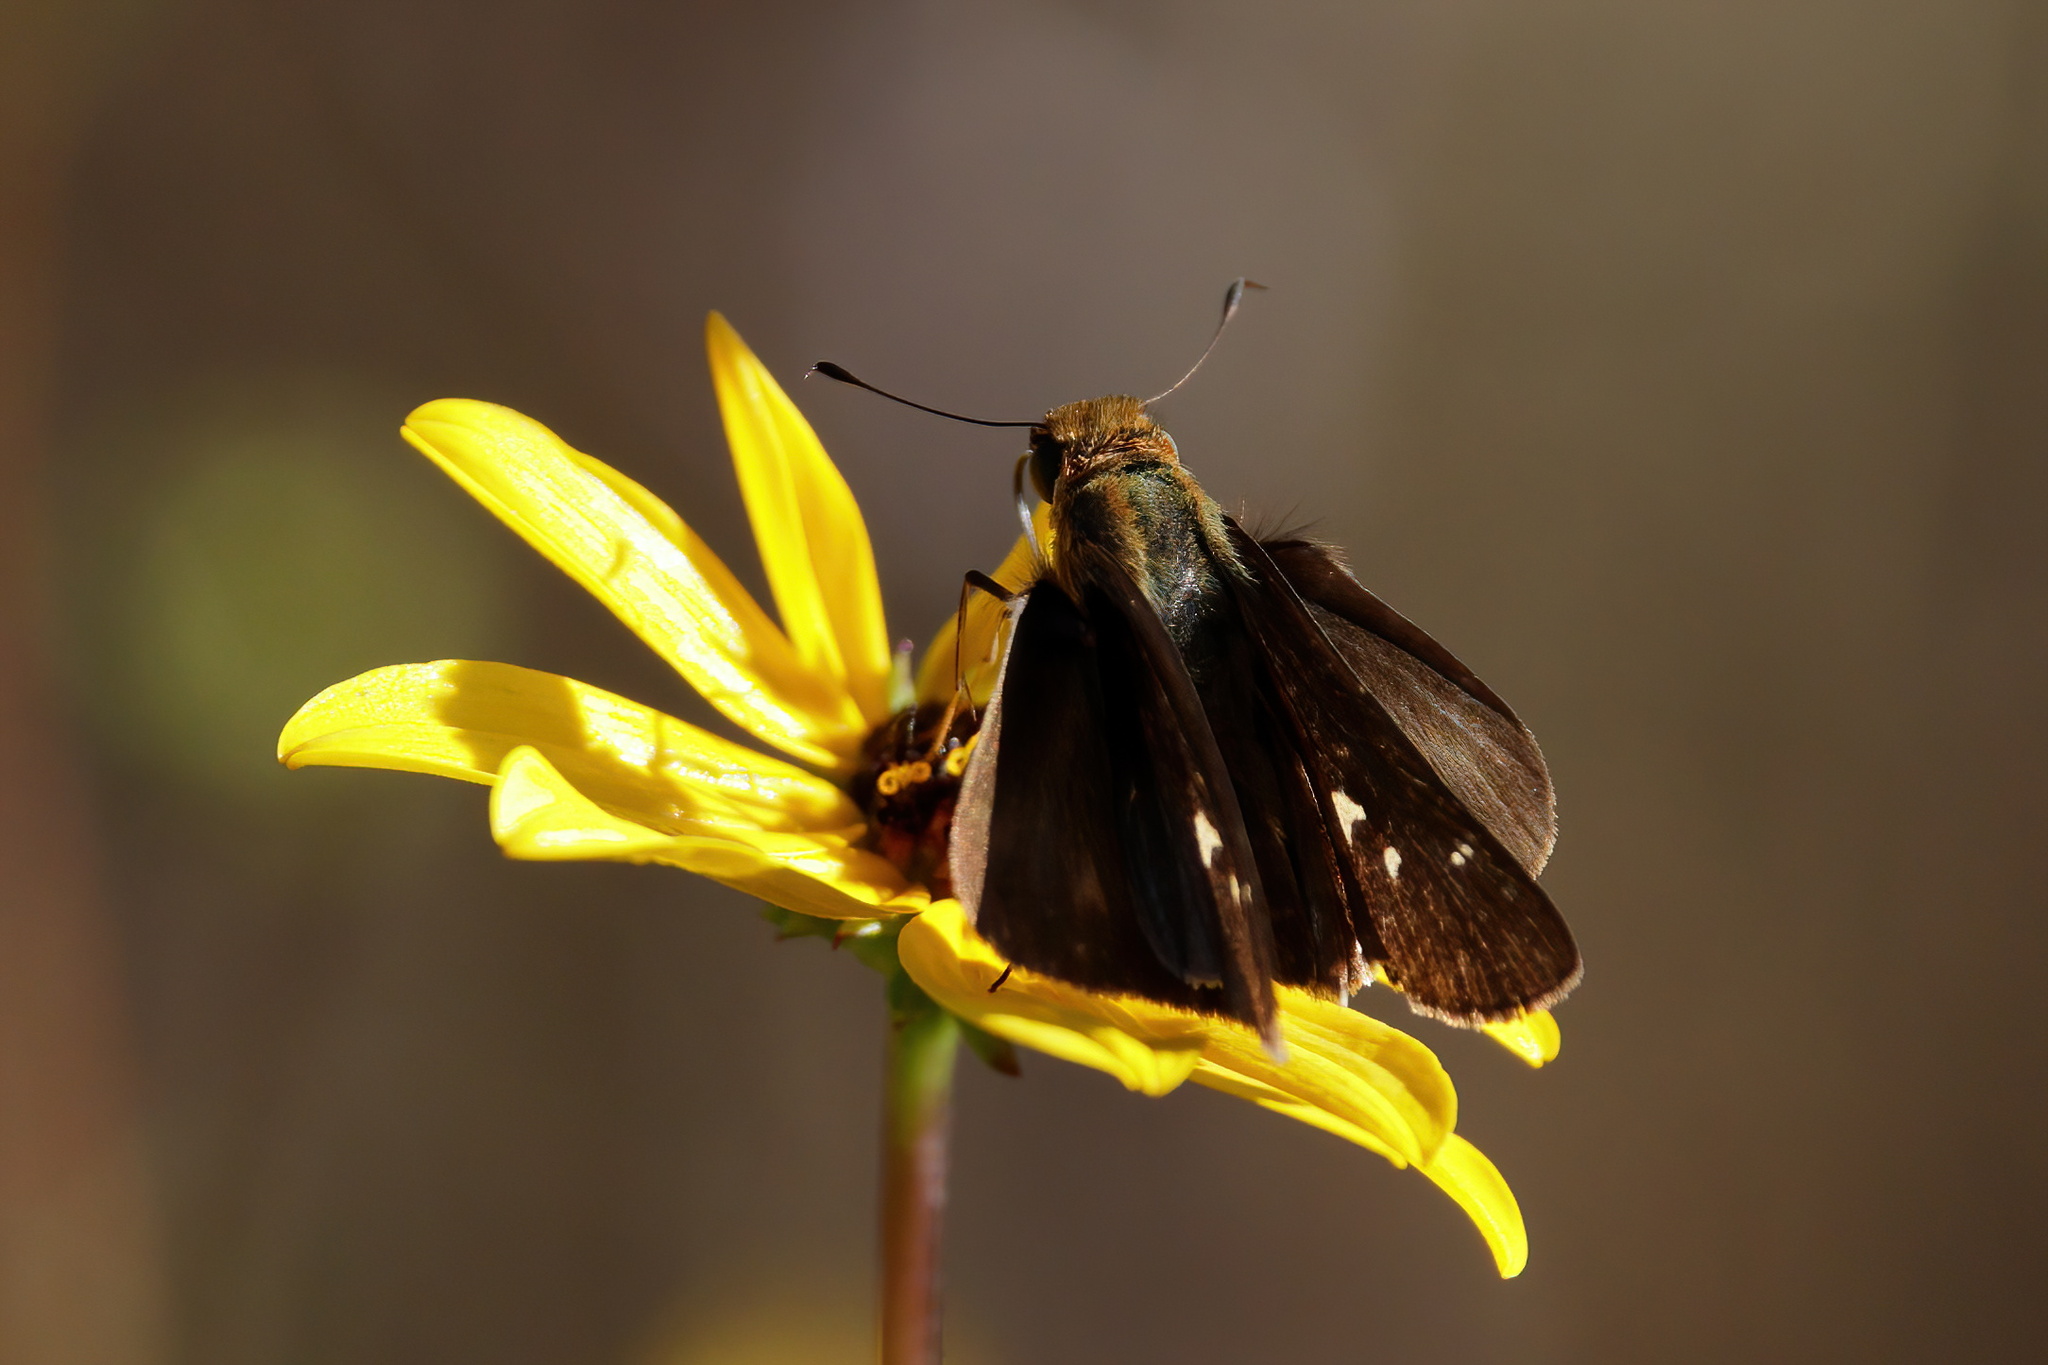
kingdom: Animalia
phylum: Arthropoda
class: Insecta
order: Lepidoptera
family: Hesperiidae
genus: Panoquina
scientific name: Panoquina ocola
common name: Ocola skipper
